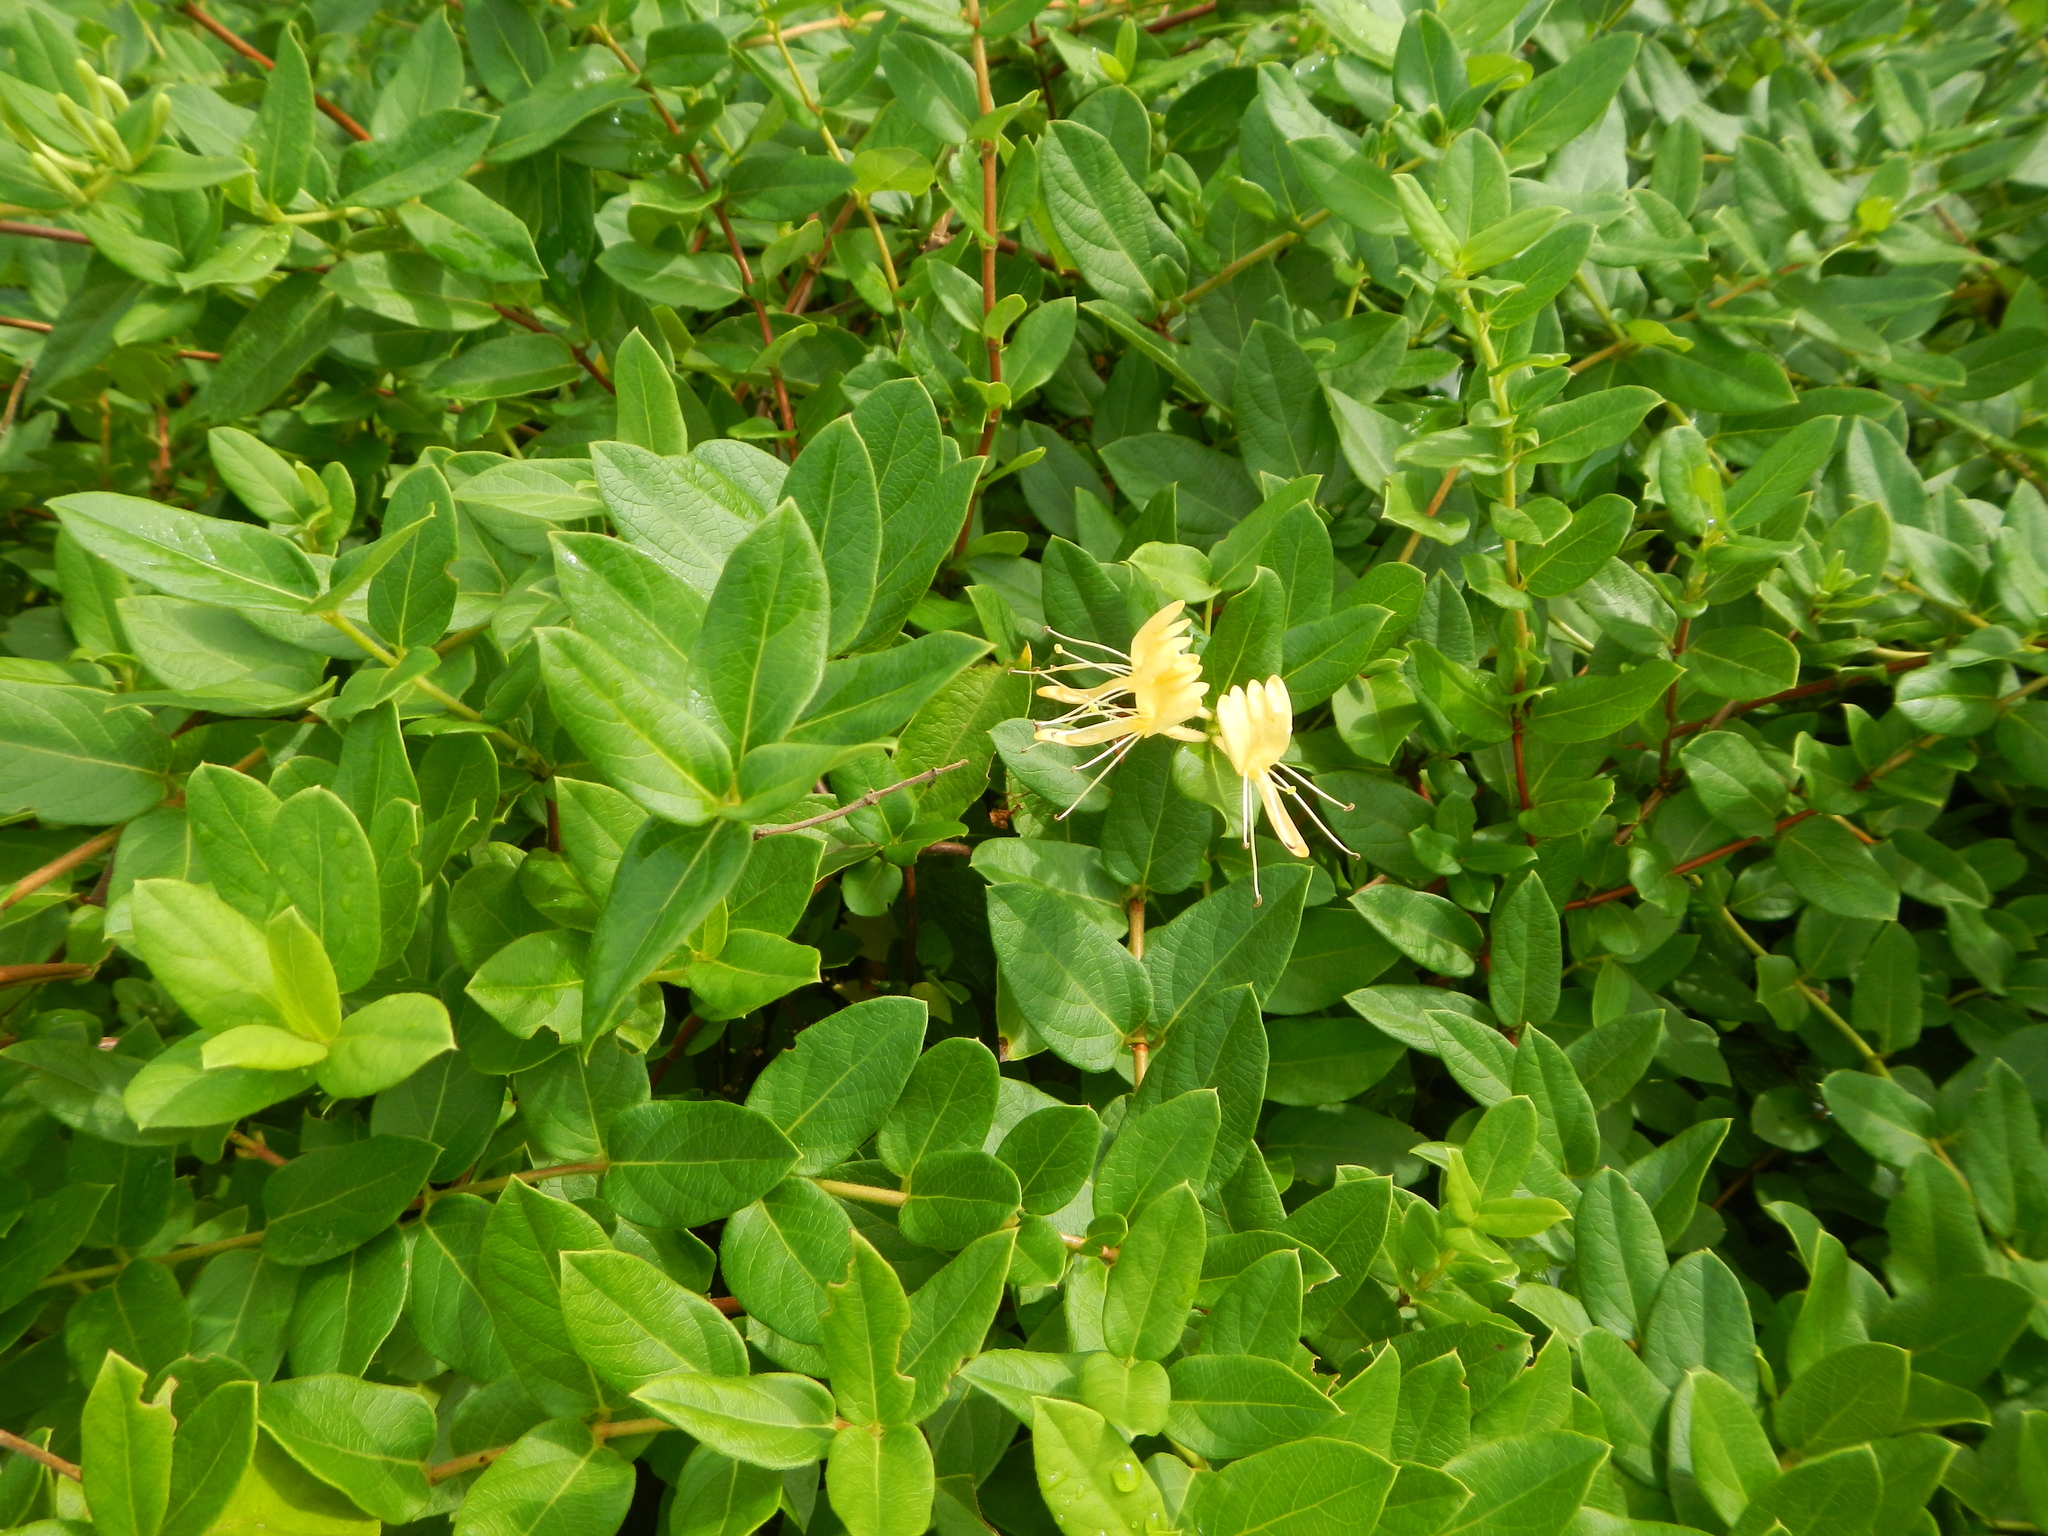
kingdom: Plantae
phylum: Tracheophyta
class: Magnoliopsida
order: Dipsacales
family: Caprifoliaceae
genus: Lonicera
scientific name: Lonicera japonica
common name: Japanese honeysuckle
